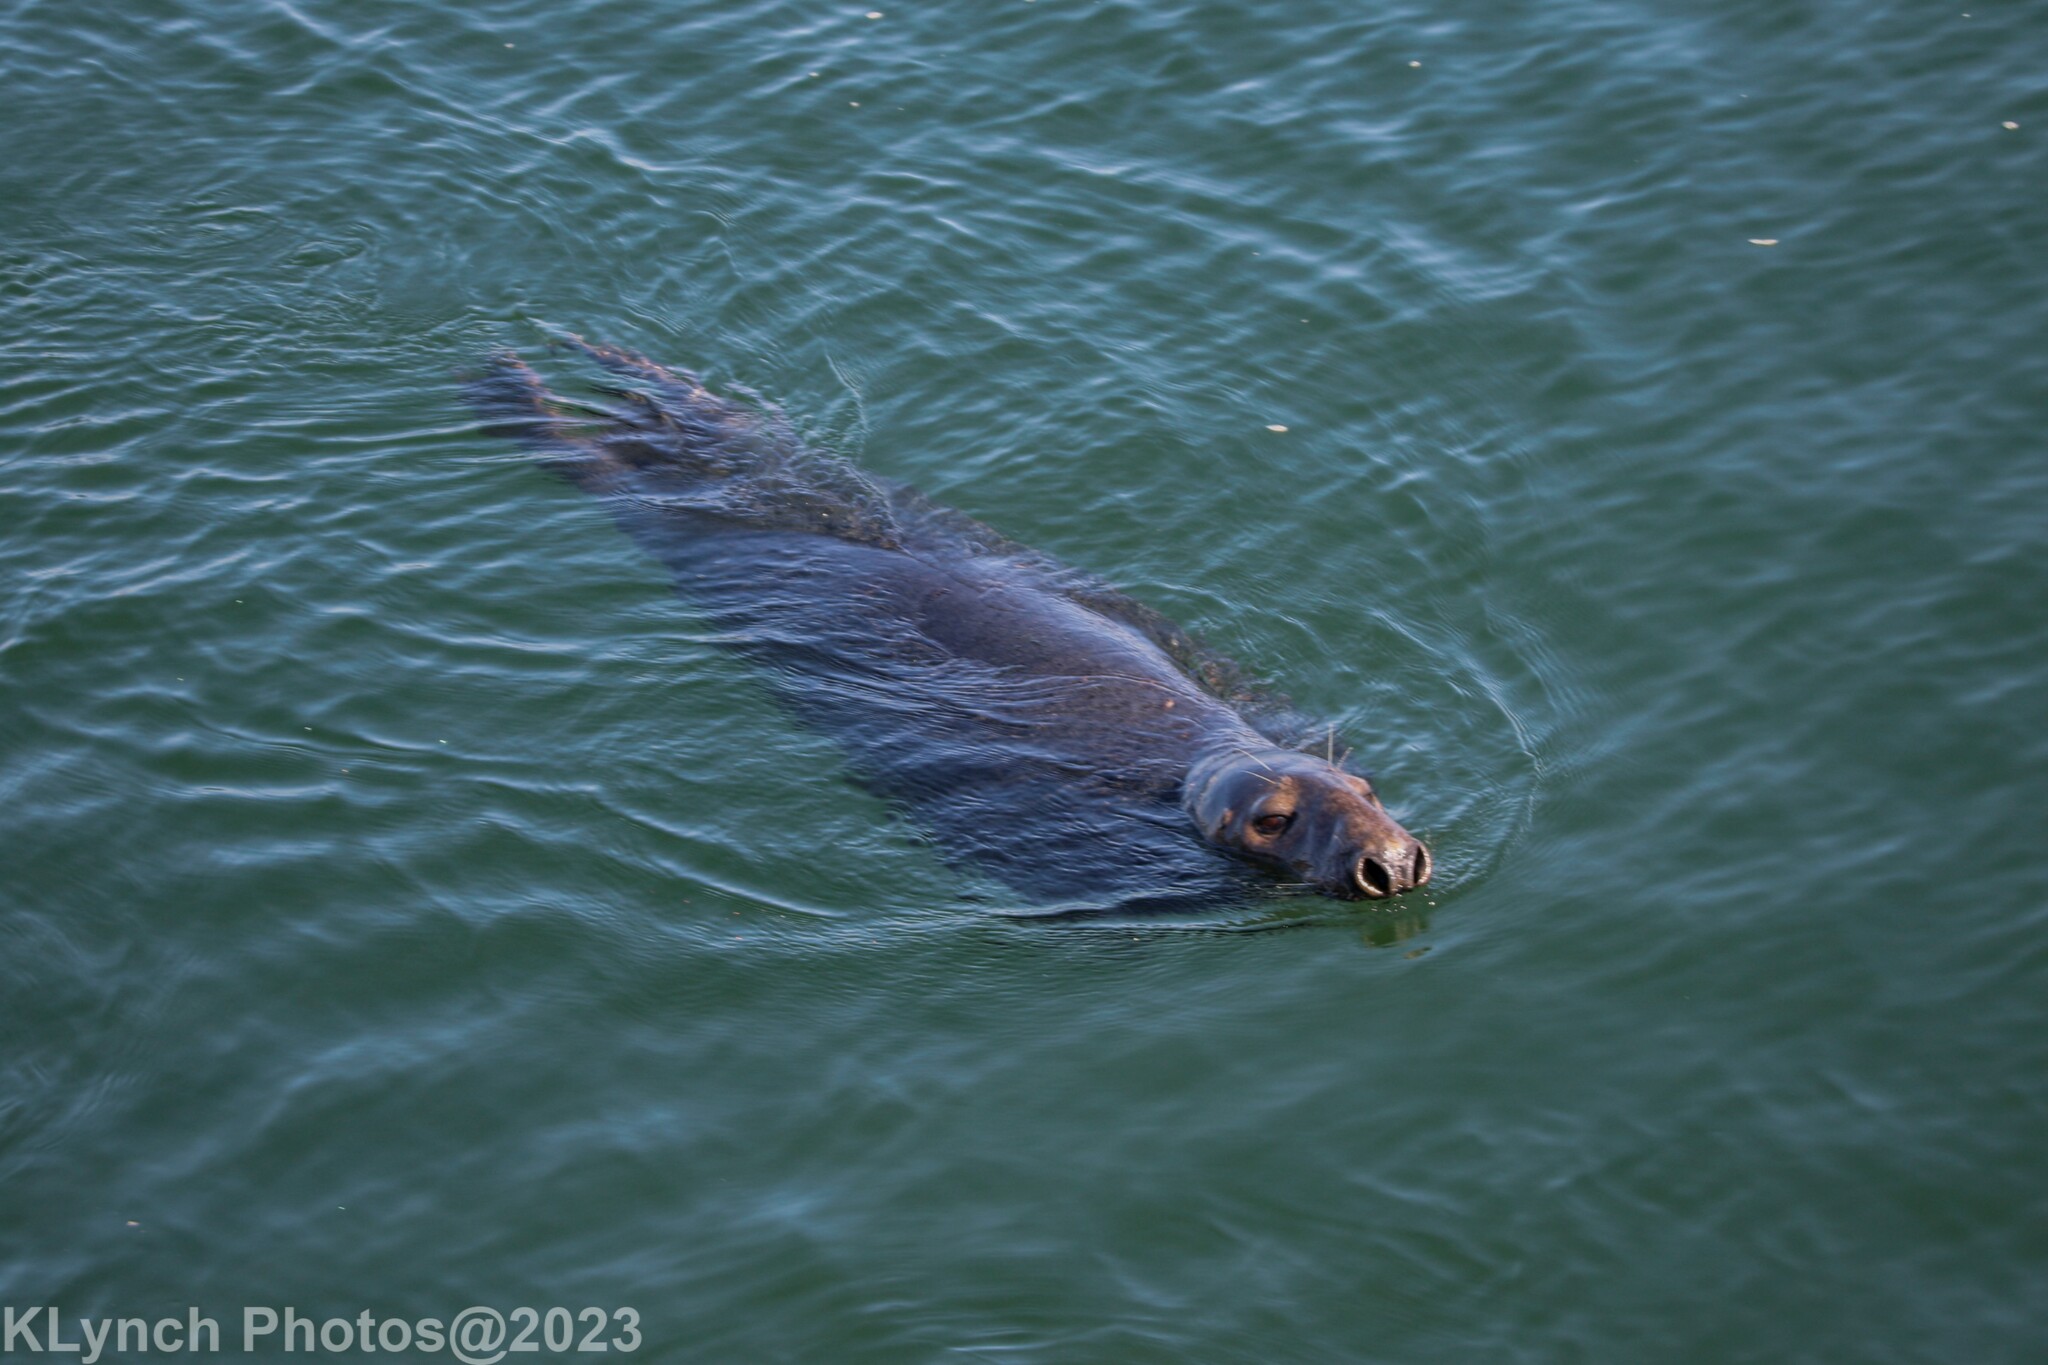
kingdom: Animalia
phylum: Chordata
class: Mammalia
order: Carnivora
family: Phocidae
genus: Halichoerus
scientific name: Halichoerus grypus
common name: Grey seal
